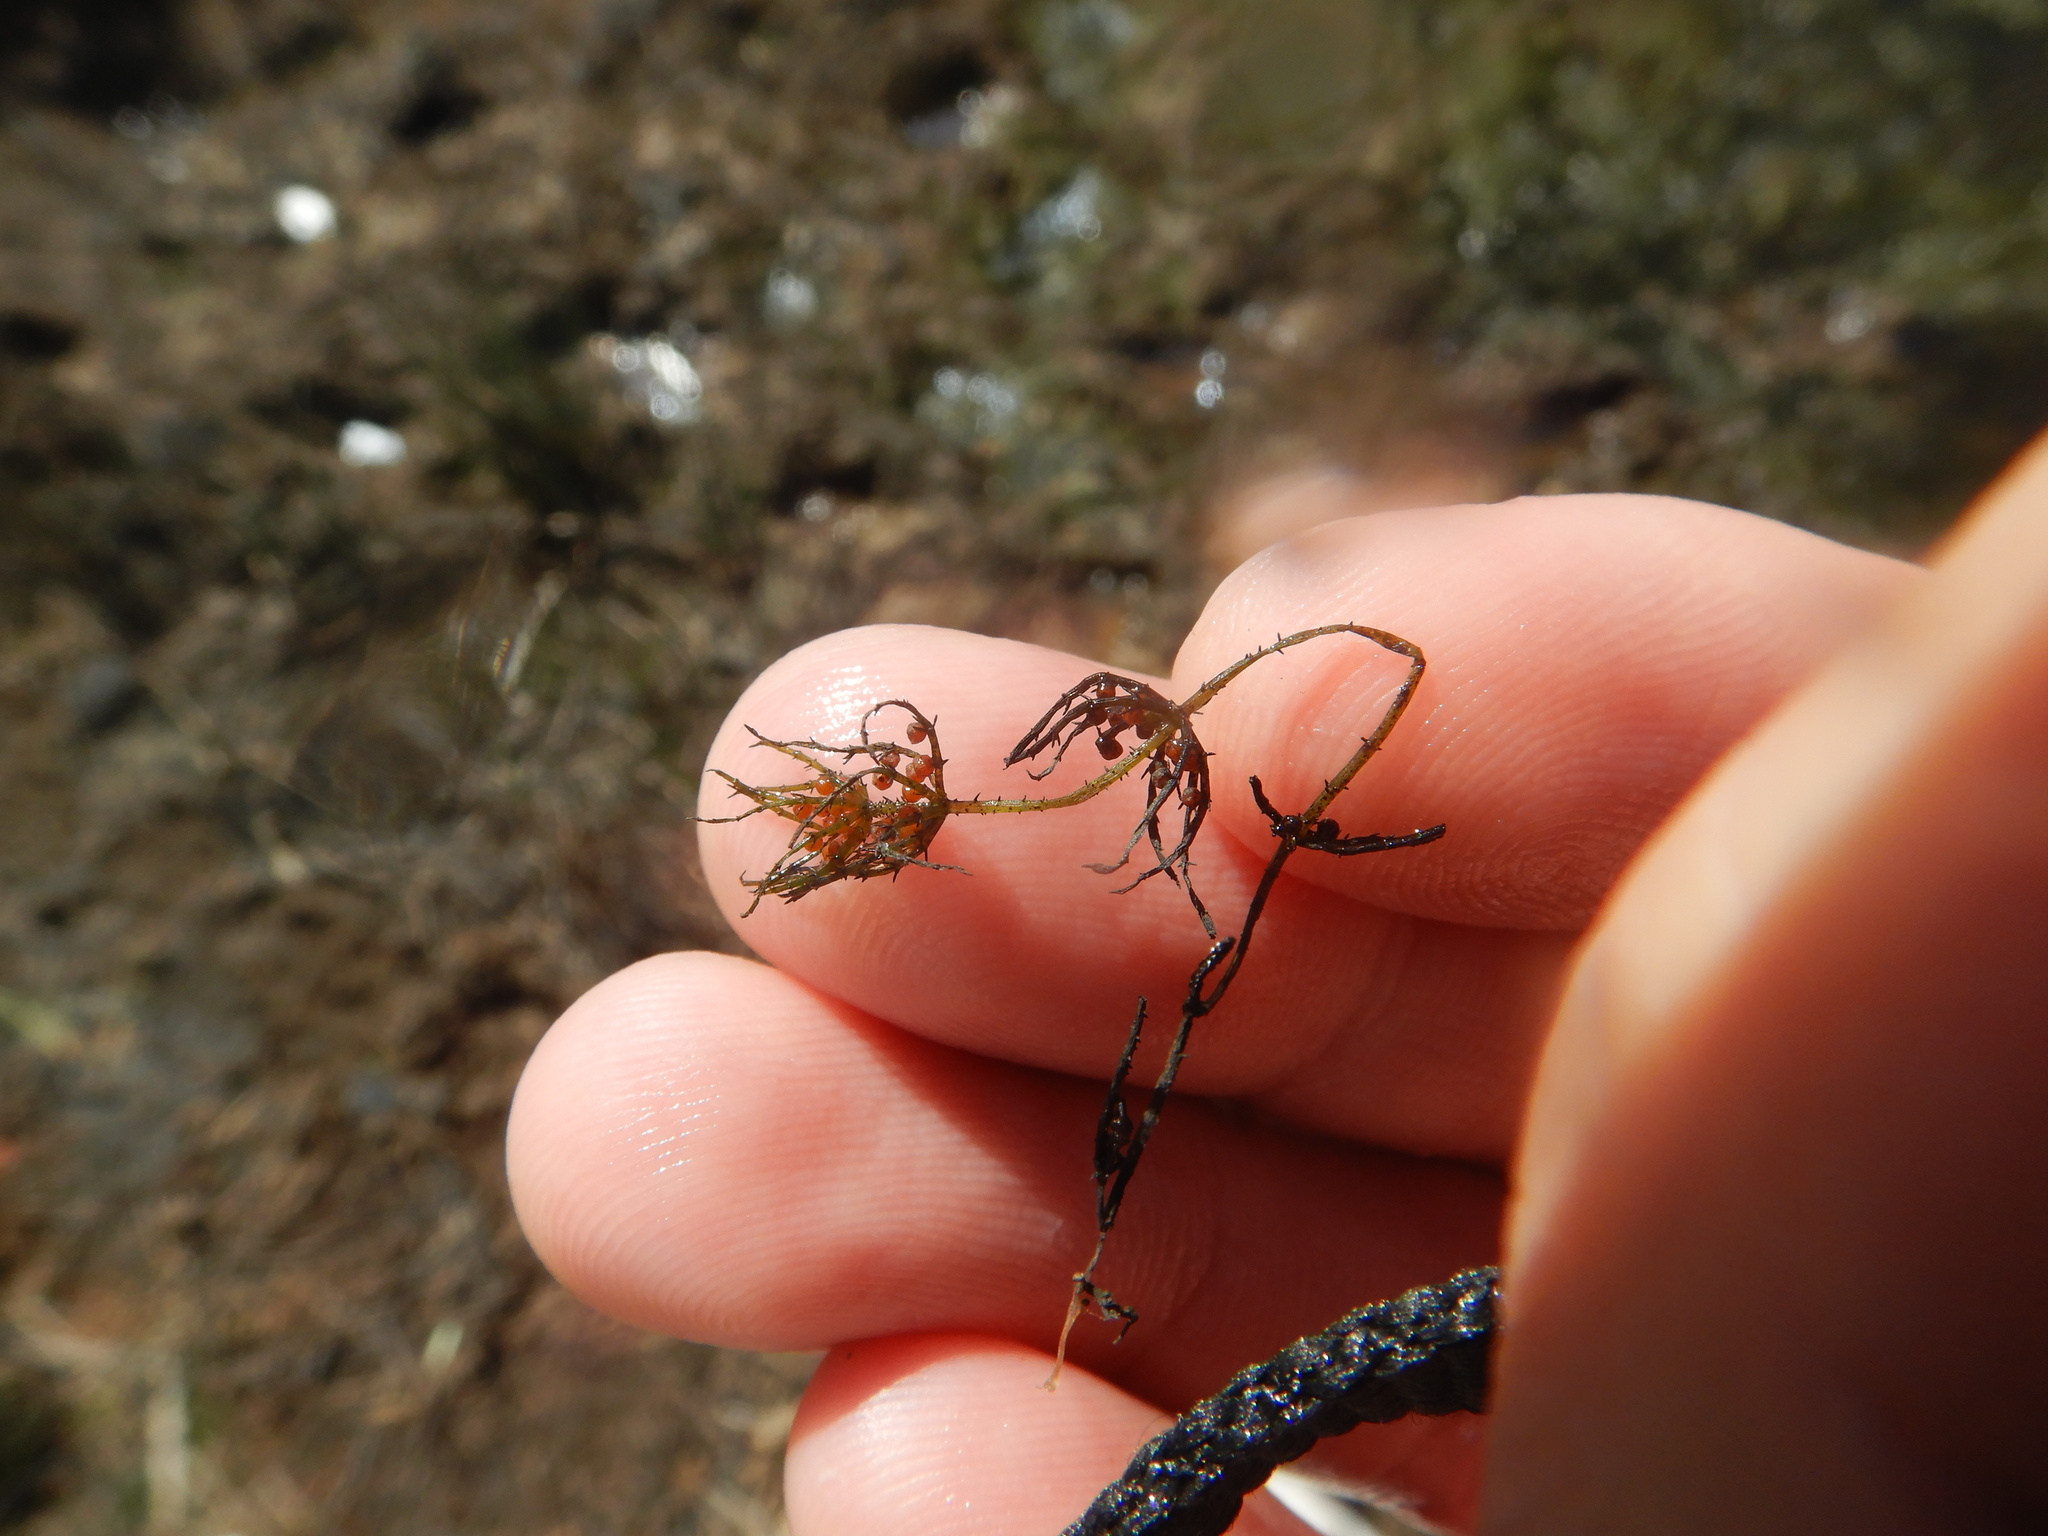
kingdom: Plantae
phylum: Charophyta
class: Charophyceae
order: Charales
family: Characeae
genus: Chara
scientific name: Chara aspera
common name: Rough stonewort
